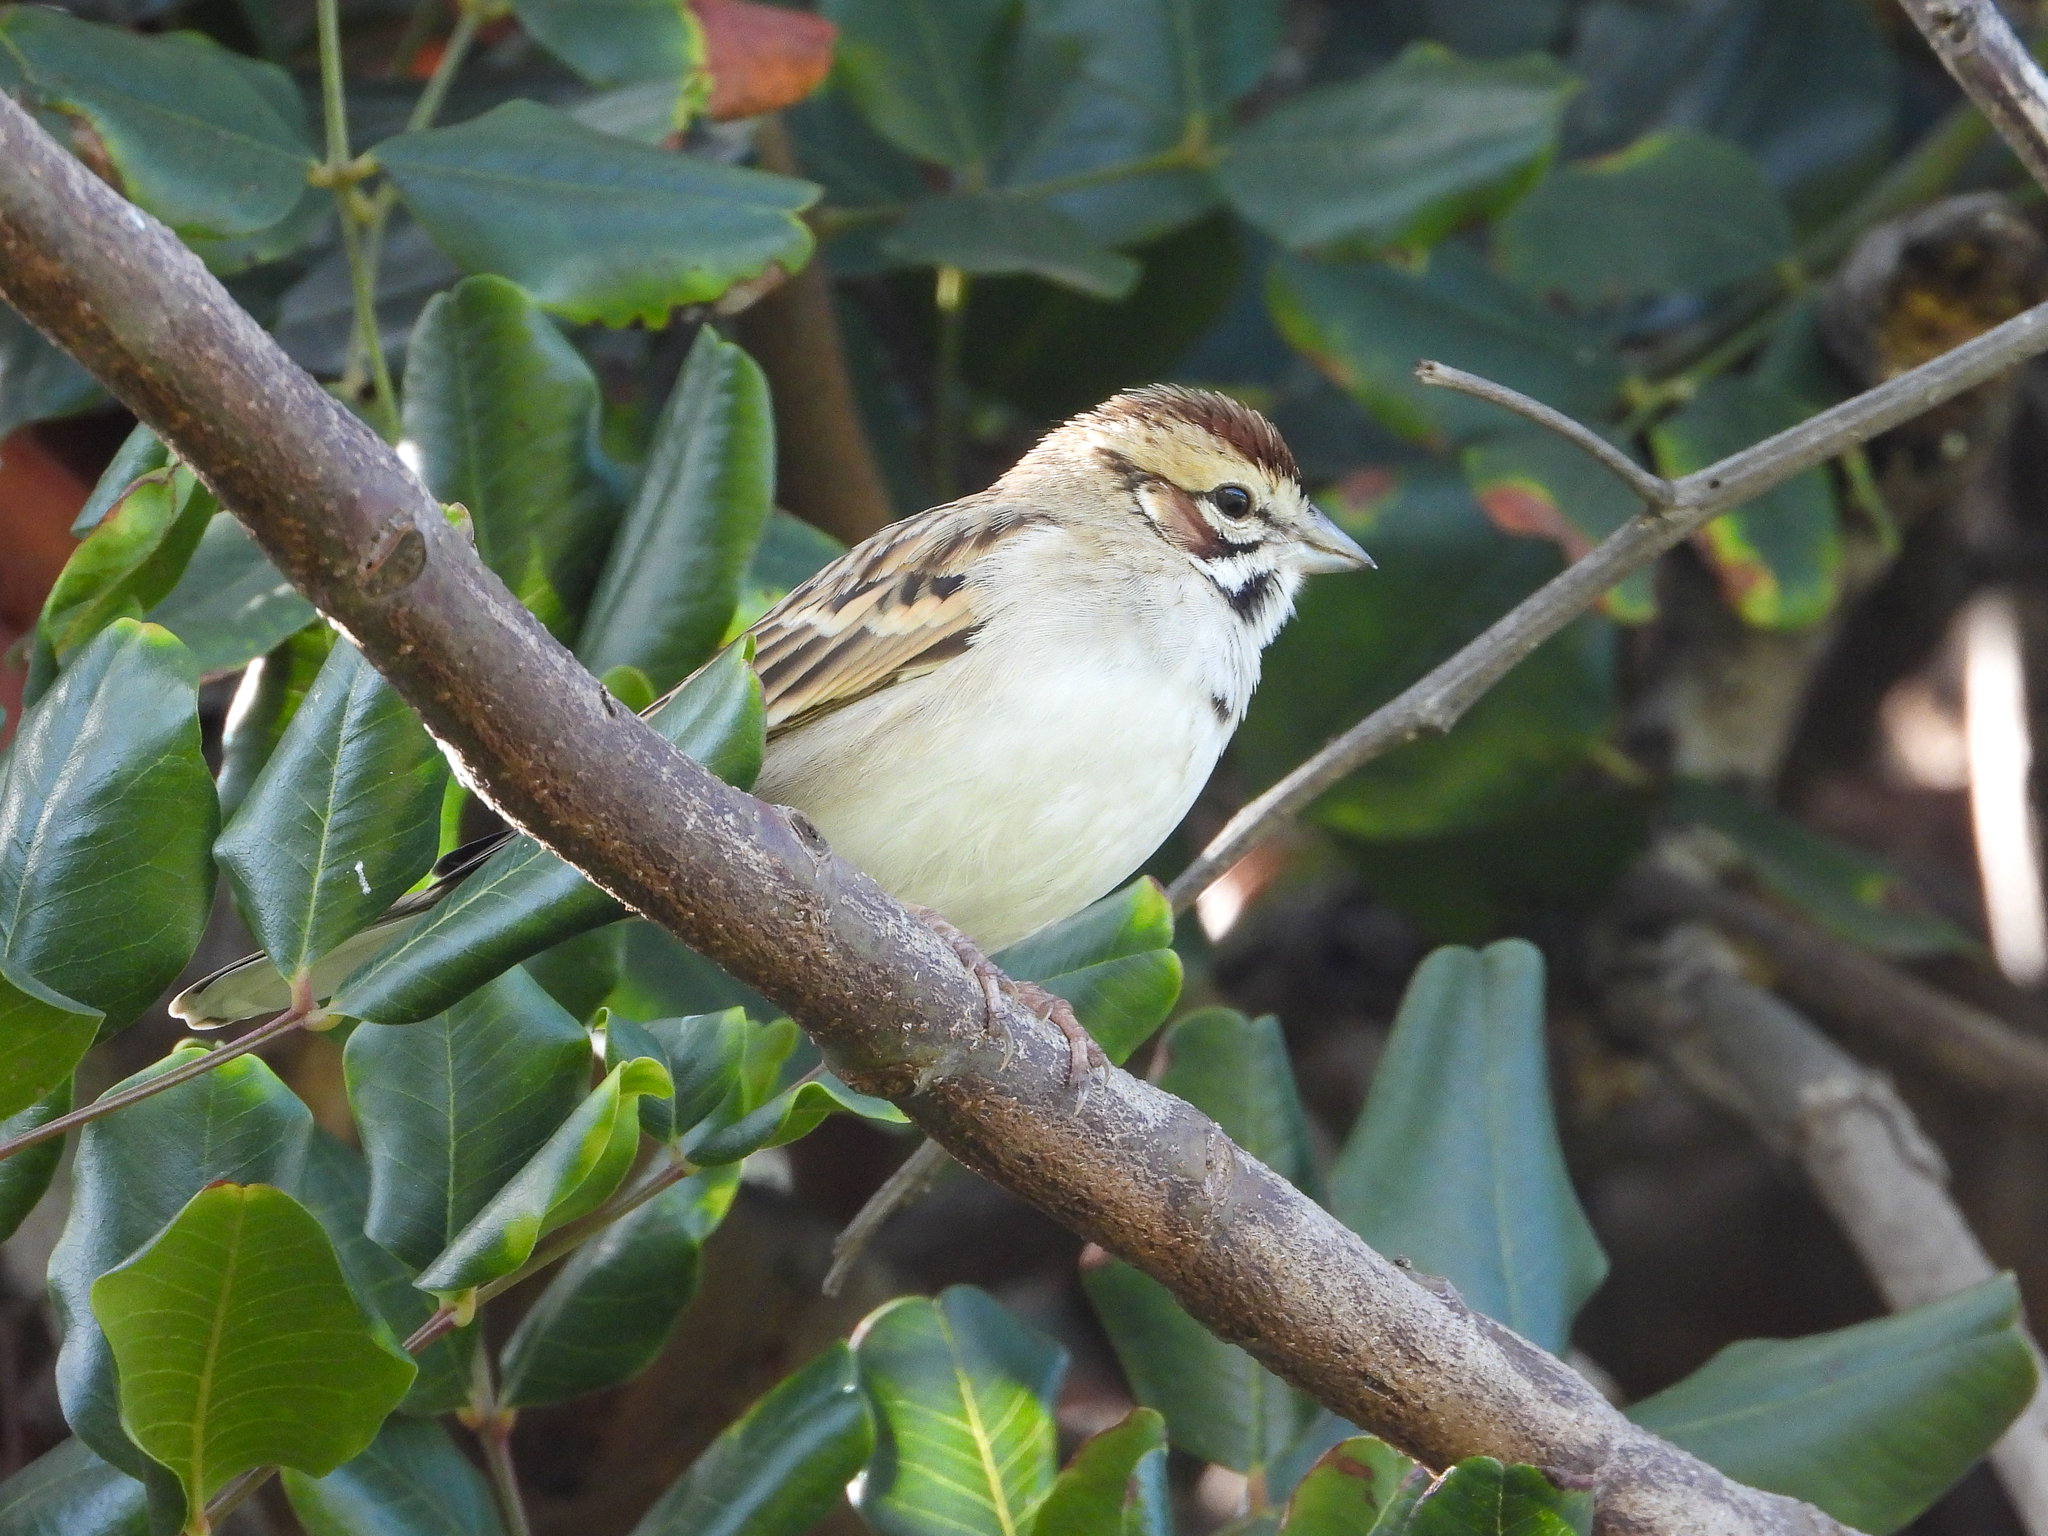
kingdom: Animalia
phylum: Chordata
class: Aves
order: Passeriformes
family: Passerellidae
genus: Chondestes
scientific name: Chondestes grammacus
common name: Lark sparrow
